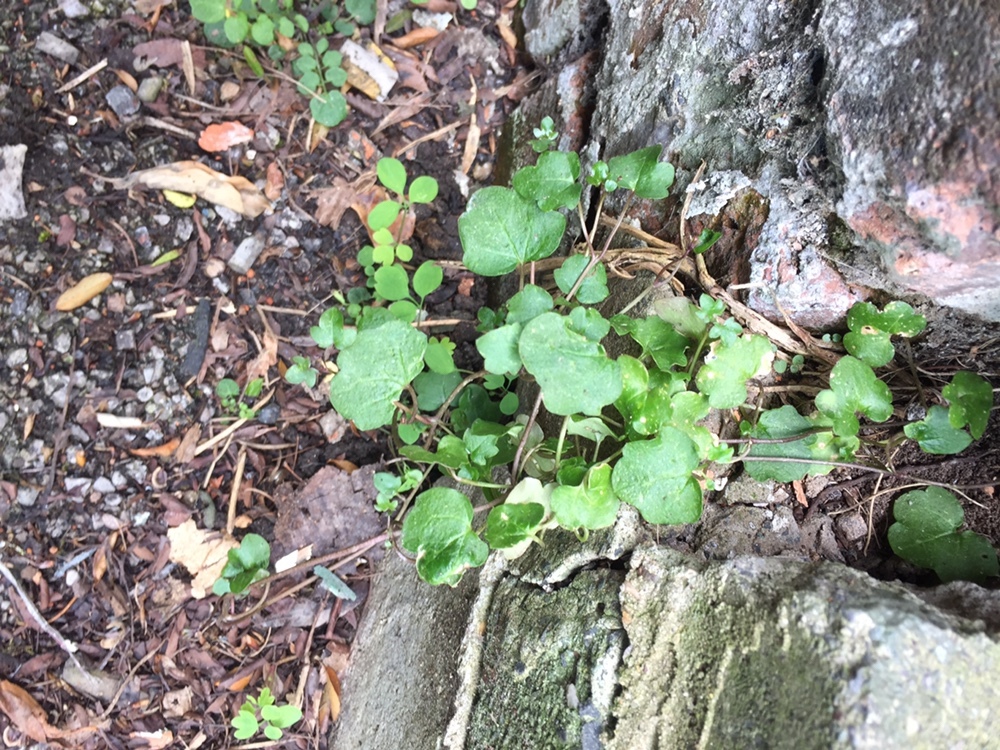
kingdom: Plantae
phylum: Tracheophyta
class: Magnoliopsida
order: Lamiales
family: Plantaginaceae
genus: Cymbalaria
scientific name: Cymbalaria muralis
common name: Ivy-leaved toadflax
